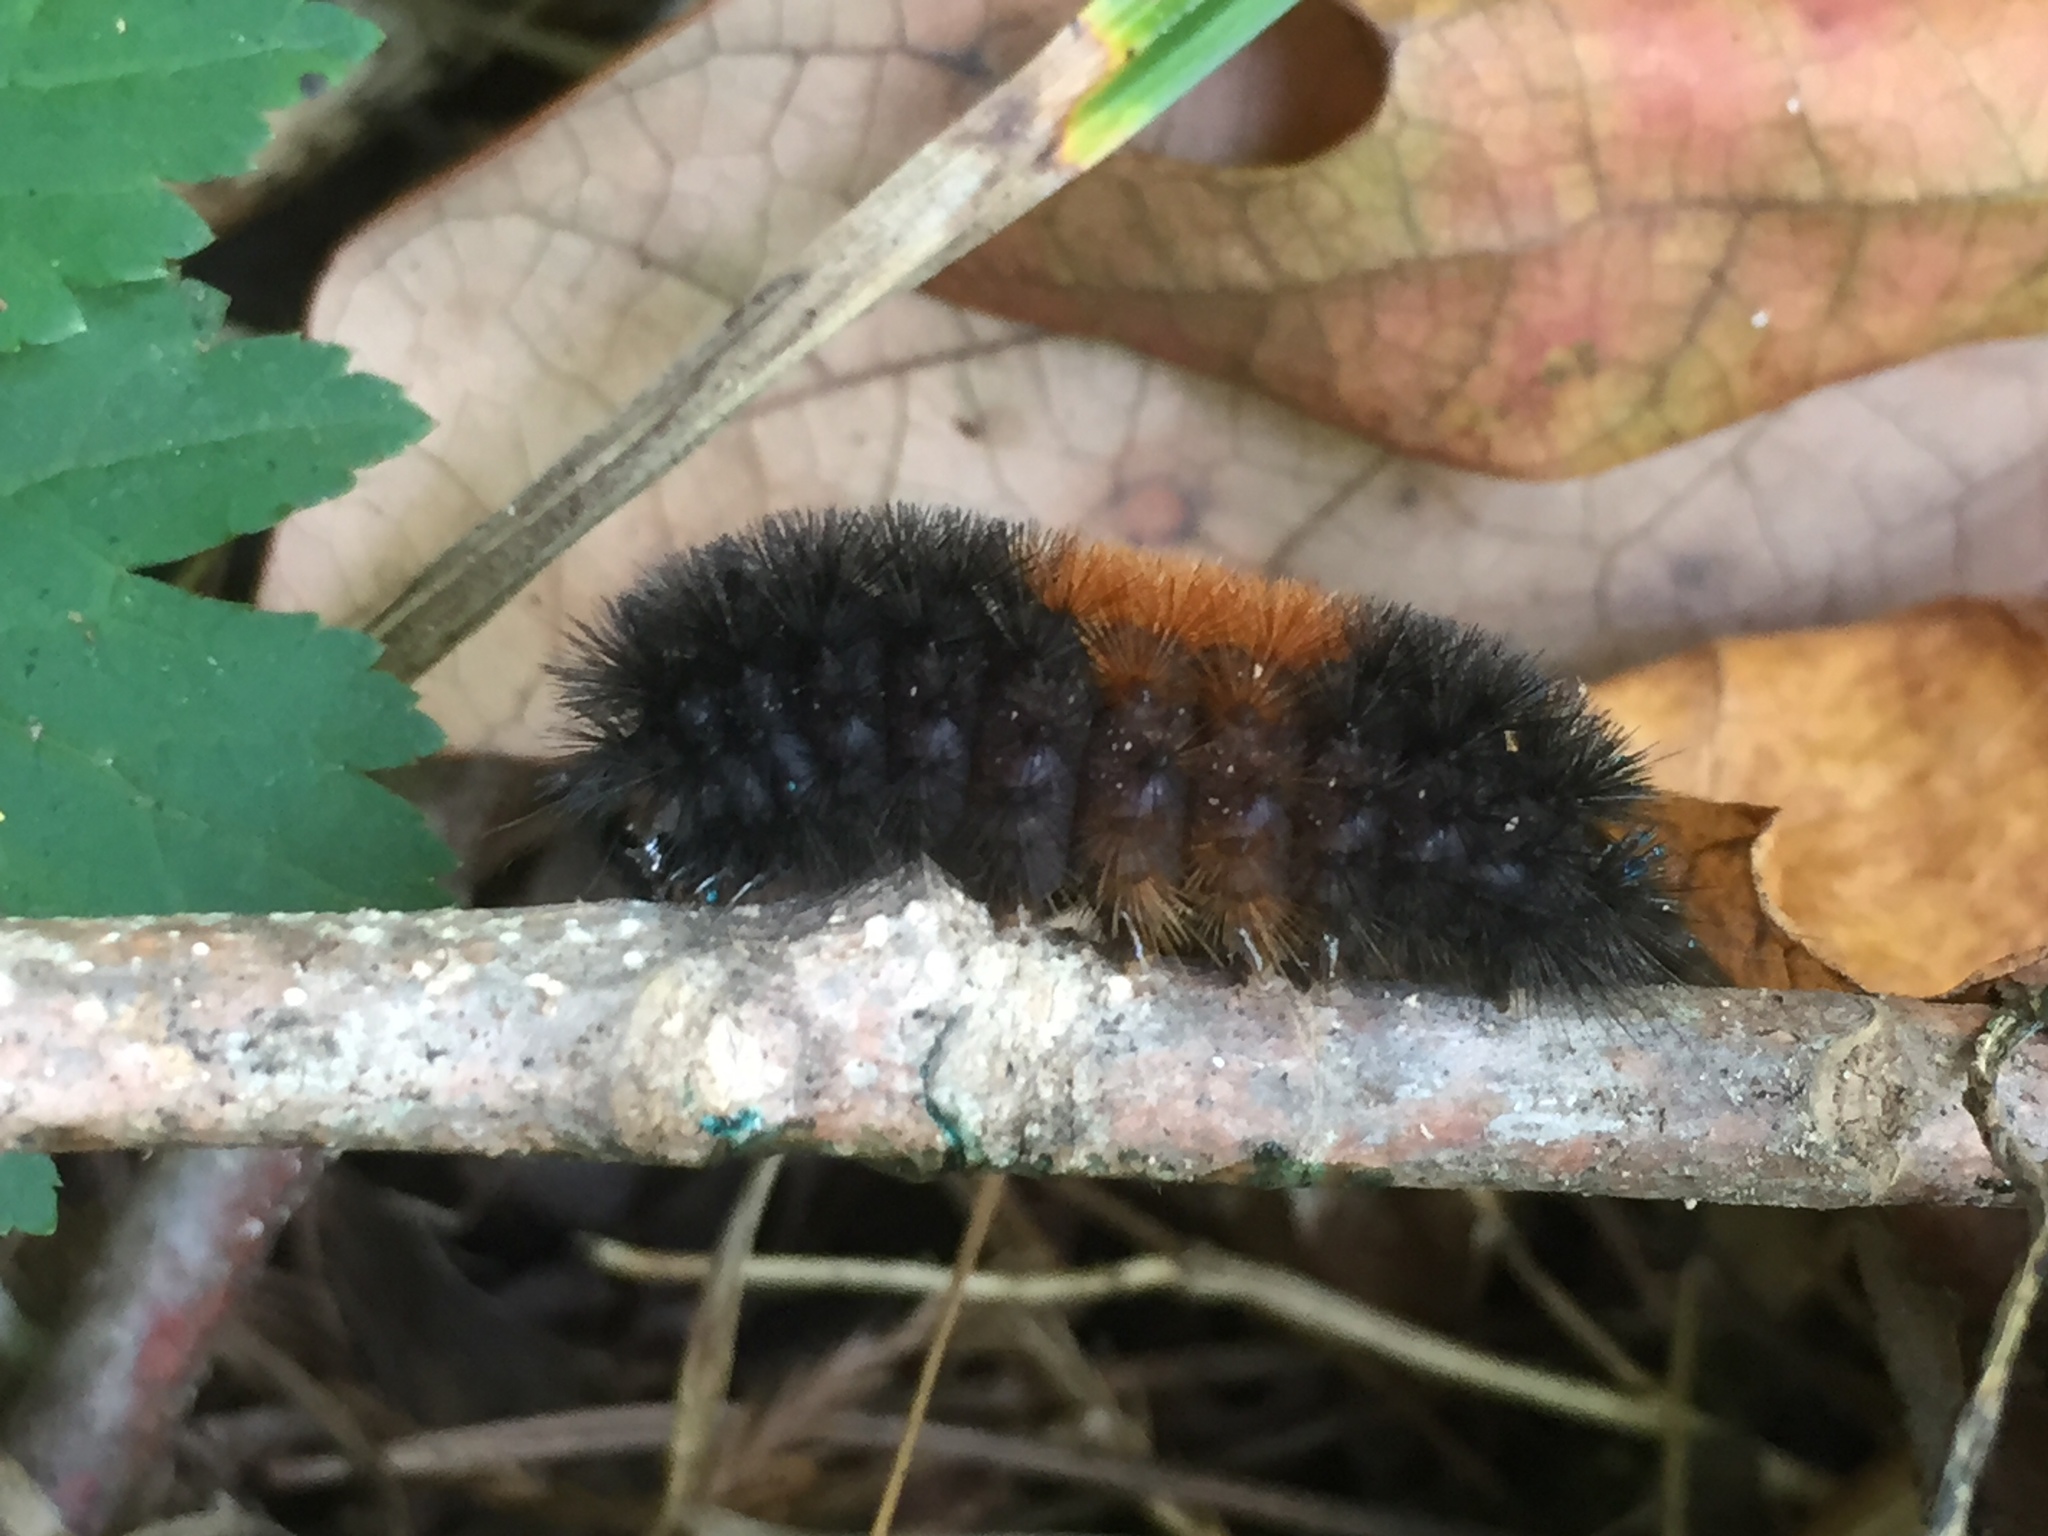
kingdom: Animalia
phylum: Arthropoda
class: Insecta
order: Lepidoptera
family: Erebidae
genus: Pyrrharctia
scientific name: Pyrrharctia isabella
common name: Isabella tiger moth
